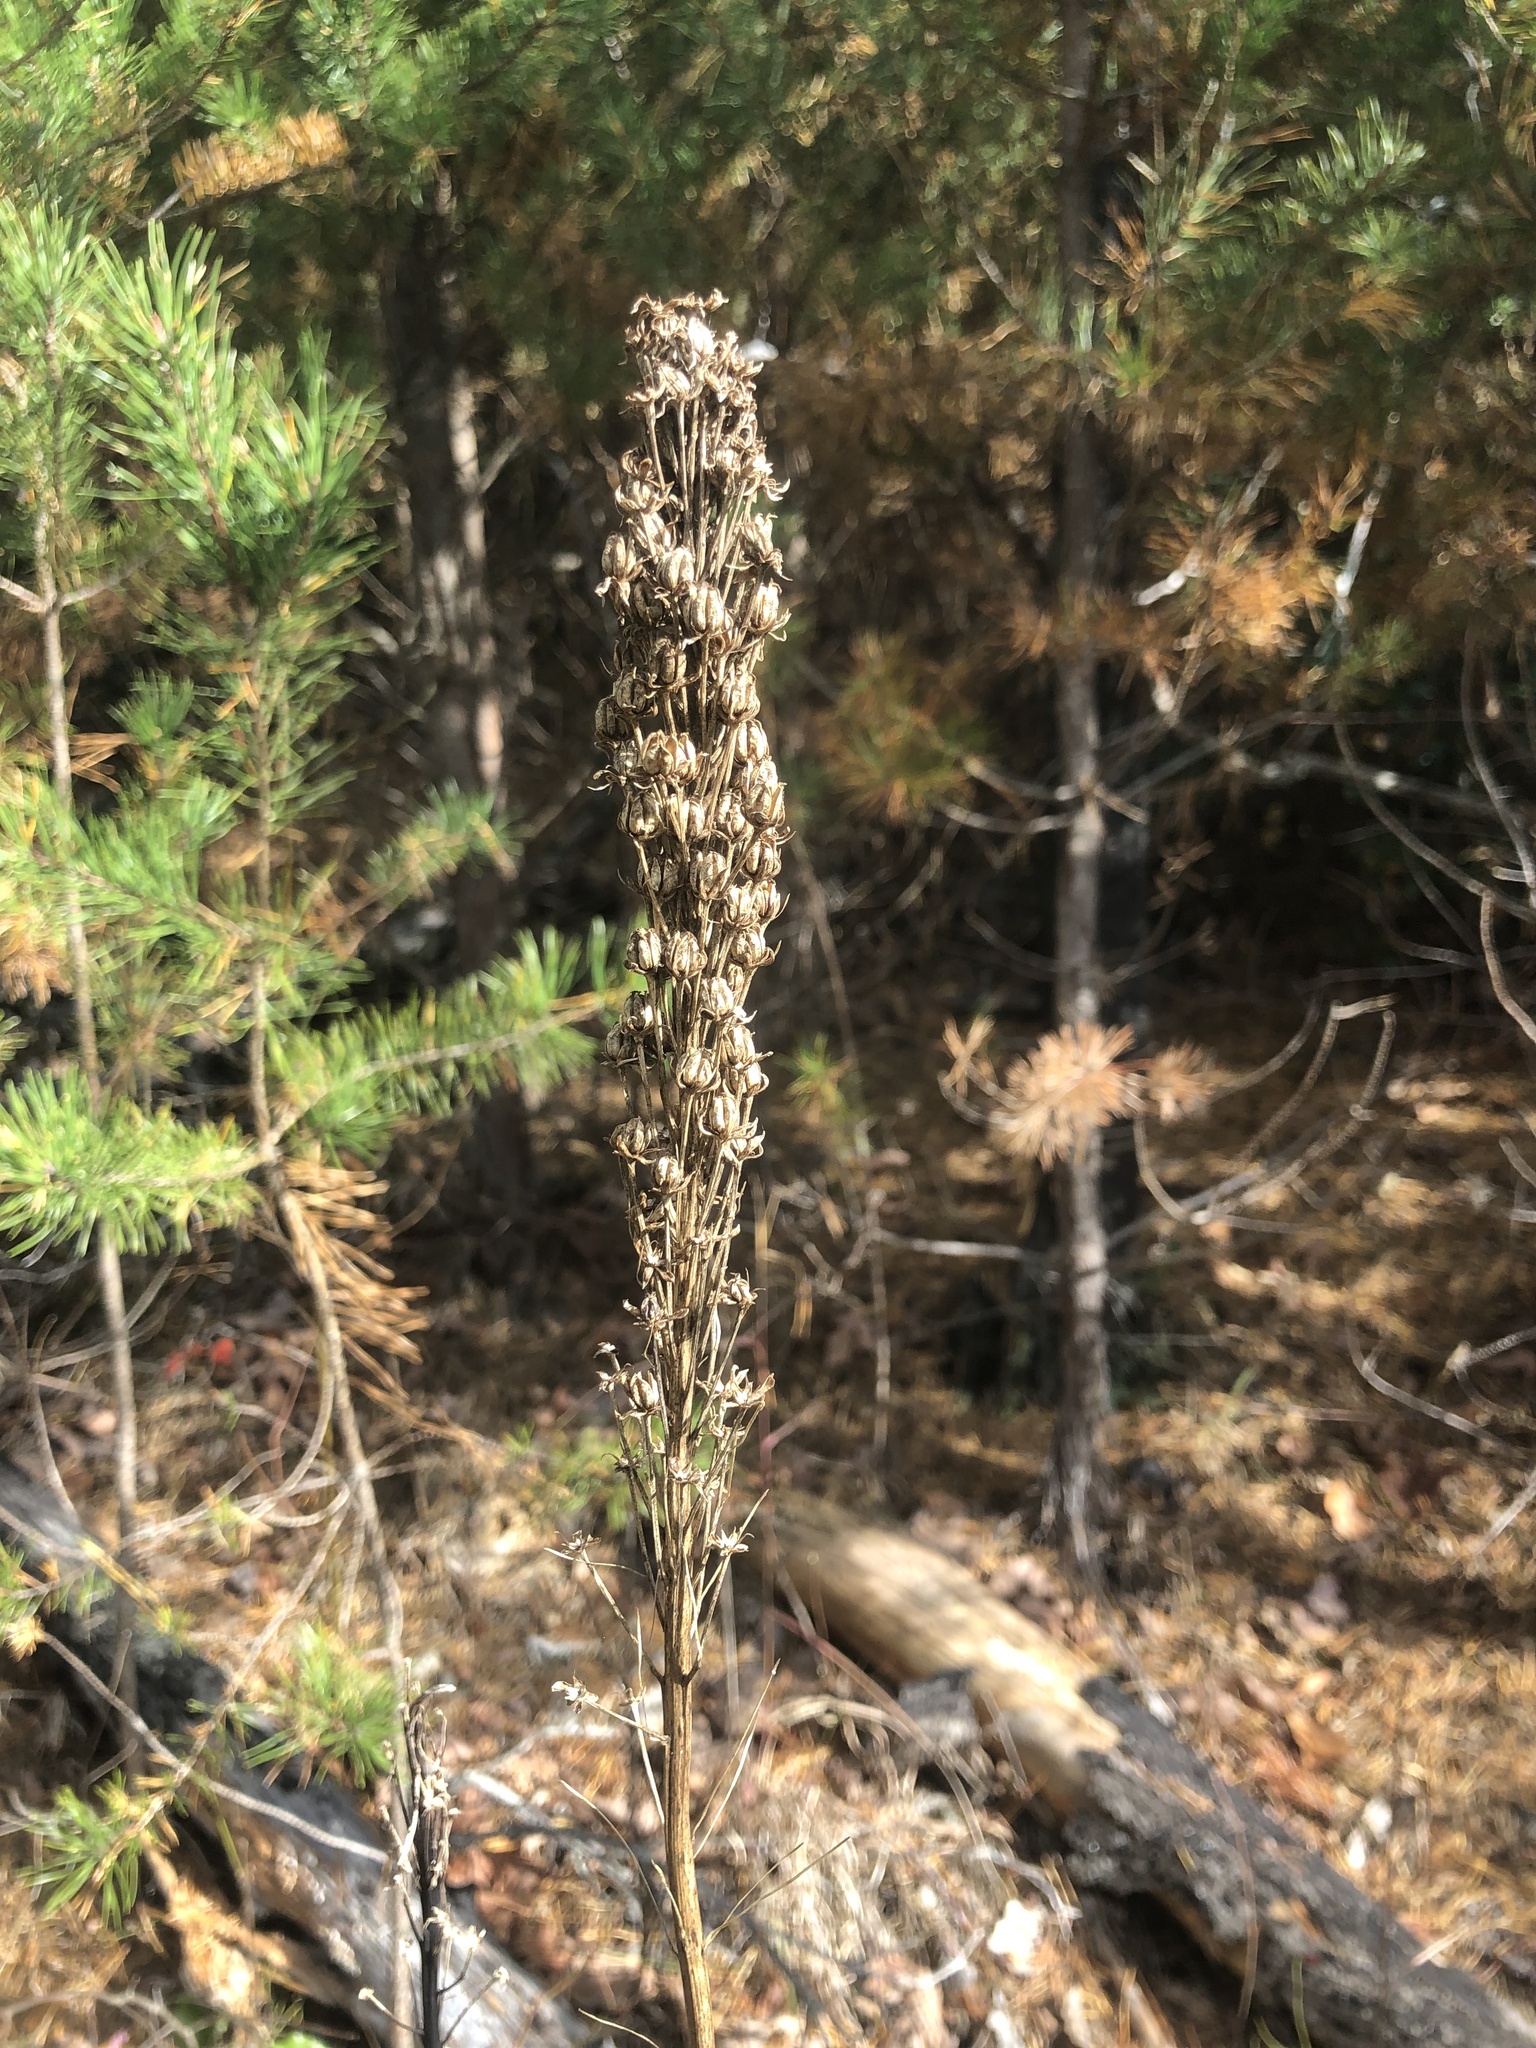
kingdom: Plantae
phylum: Tracheophyta
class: Liliopsida
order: Liliales
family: Melanthiaceae
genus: Xerophyllum
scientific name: Xerophyllum asphodeloides
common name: Mountain-asphodel
